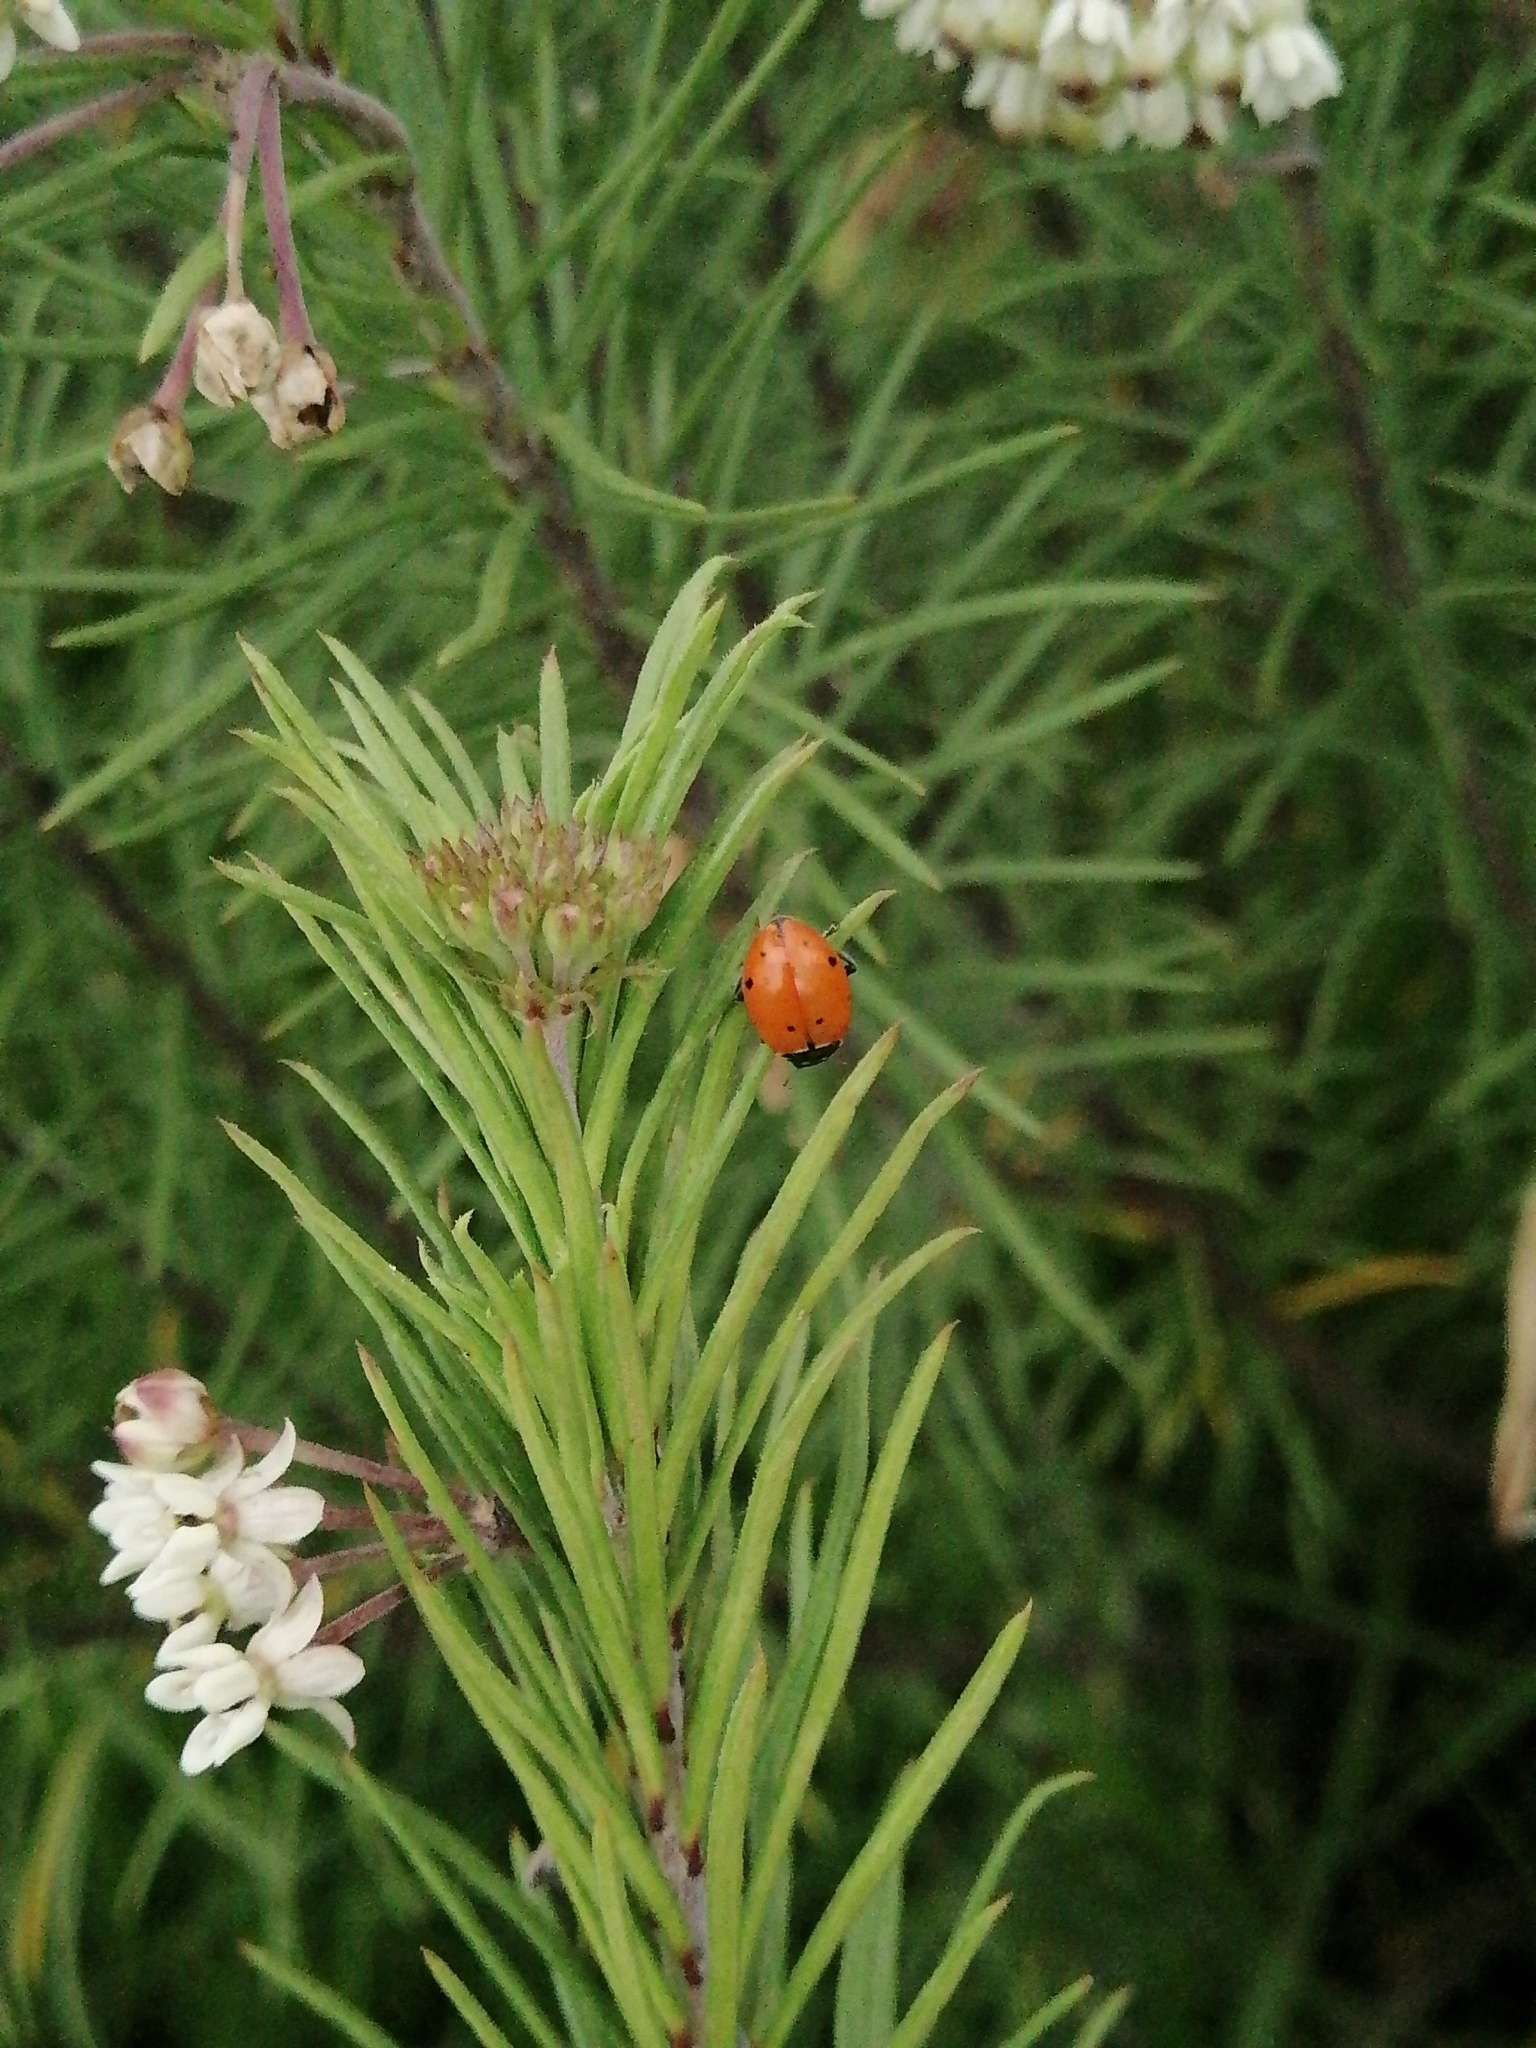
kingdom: Animalia
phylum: Arthropoda
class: Insecta
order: Coleoptera
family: Coccinellidae
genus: Hippodamia
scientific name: Hippodamia convergens
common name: Convergent lady beetle
